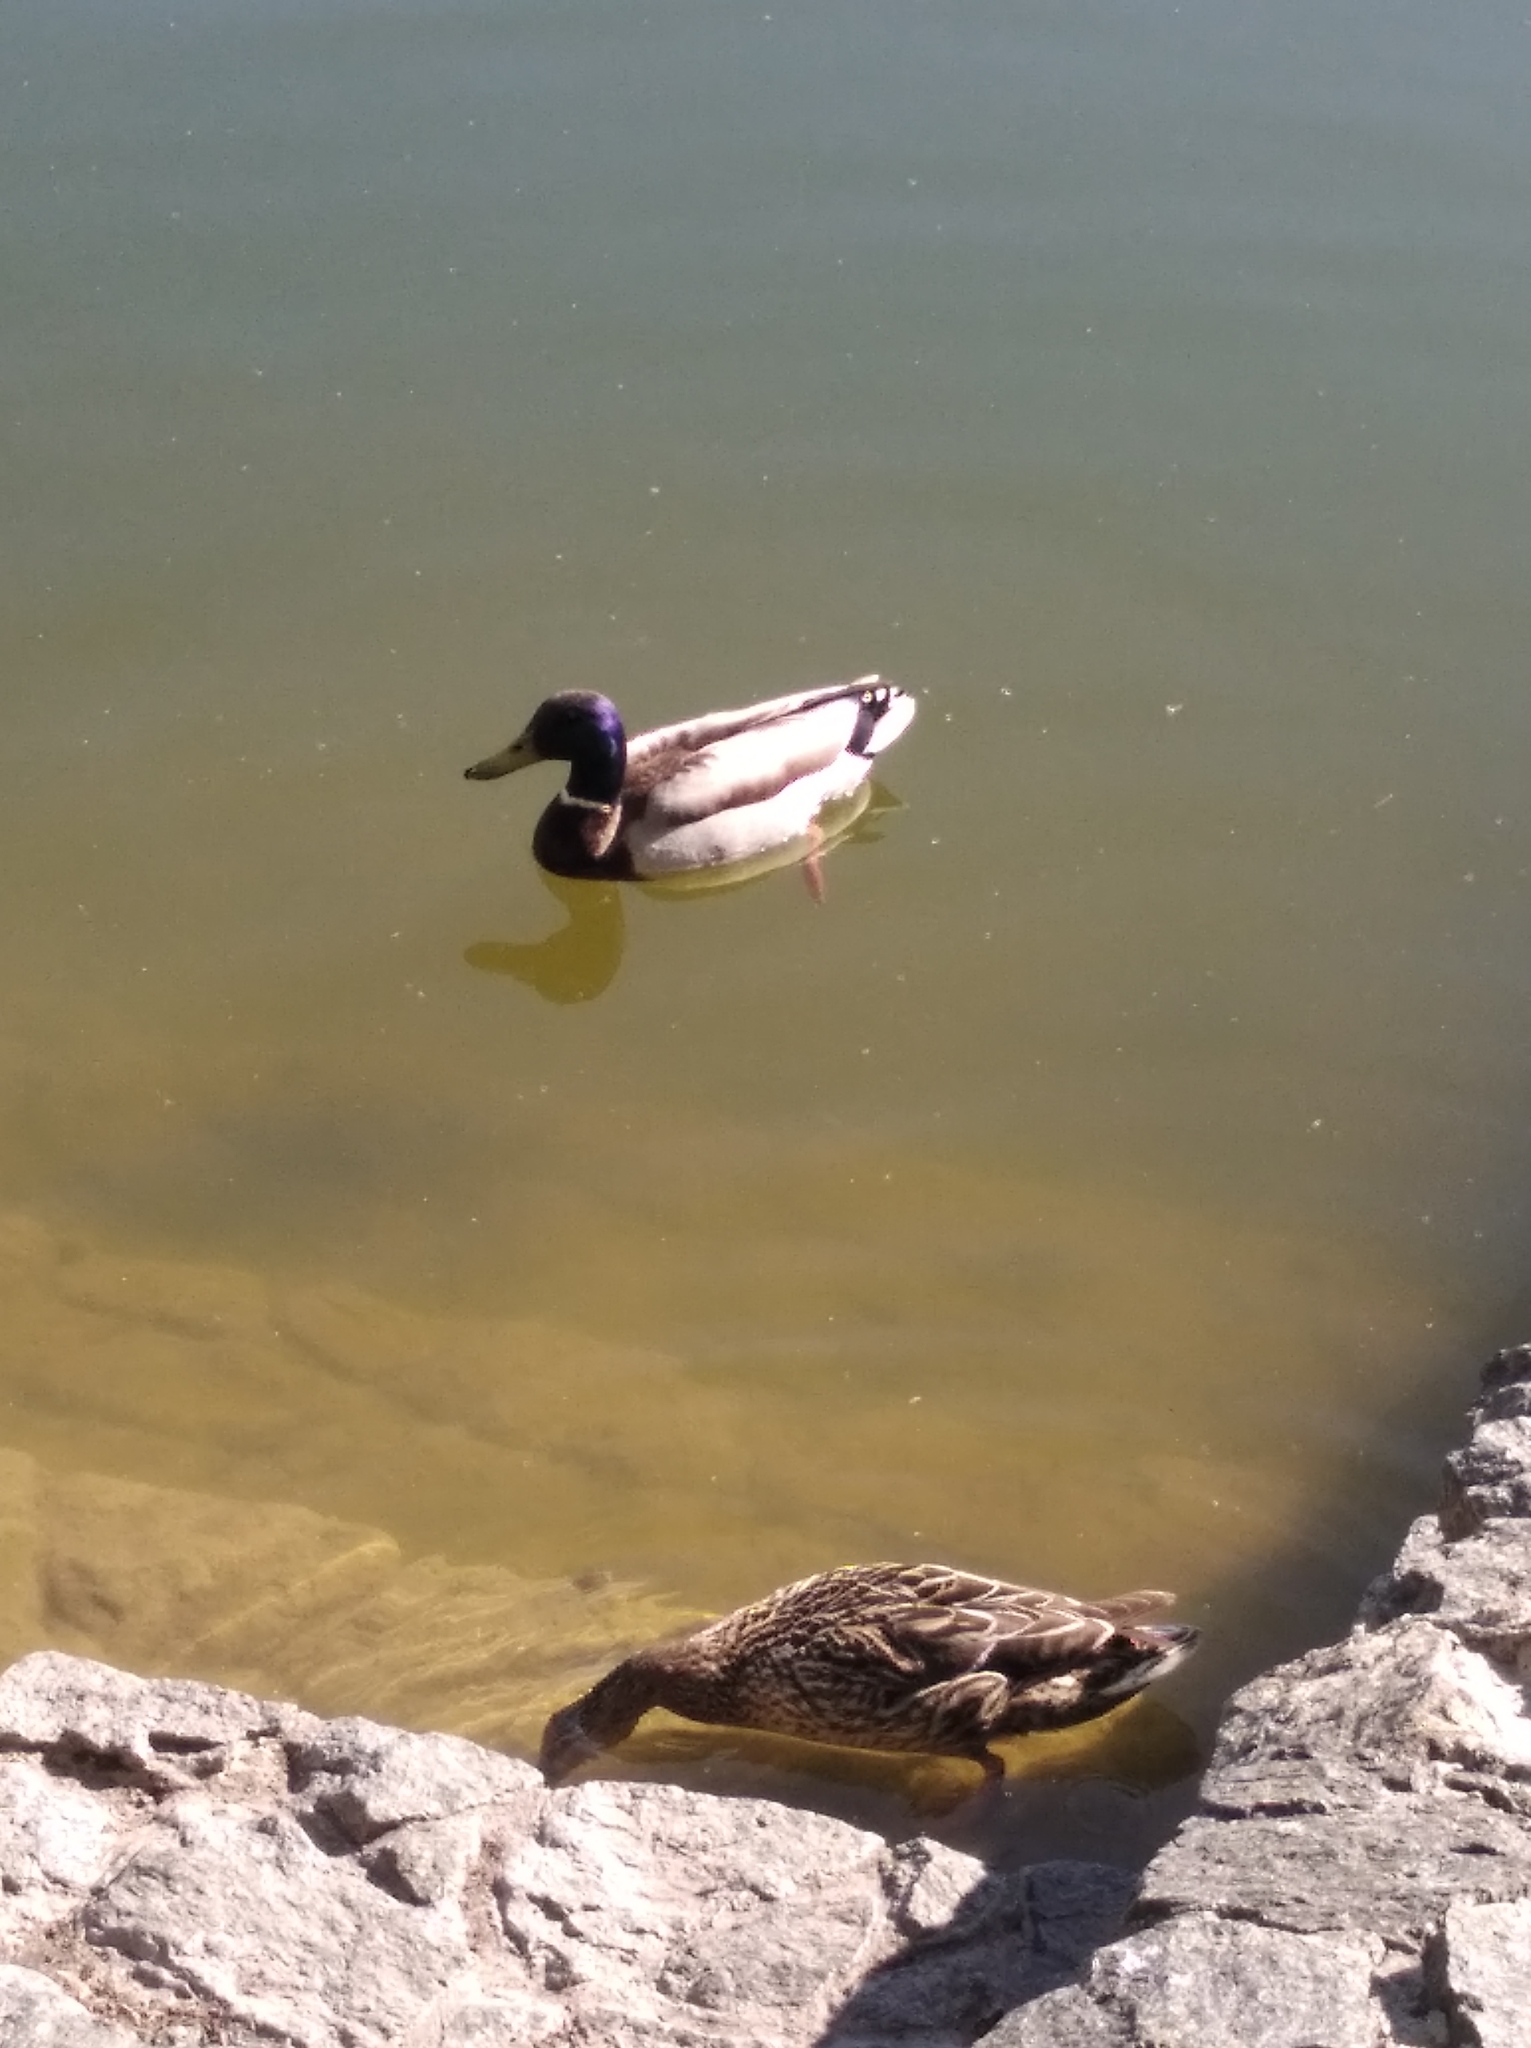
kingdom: Animalia
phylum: Chordata
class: Aves
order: Anseriformes
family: Anatidae
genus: Anas
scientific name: Anas platyrhynchos
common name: Mallard
